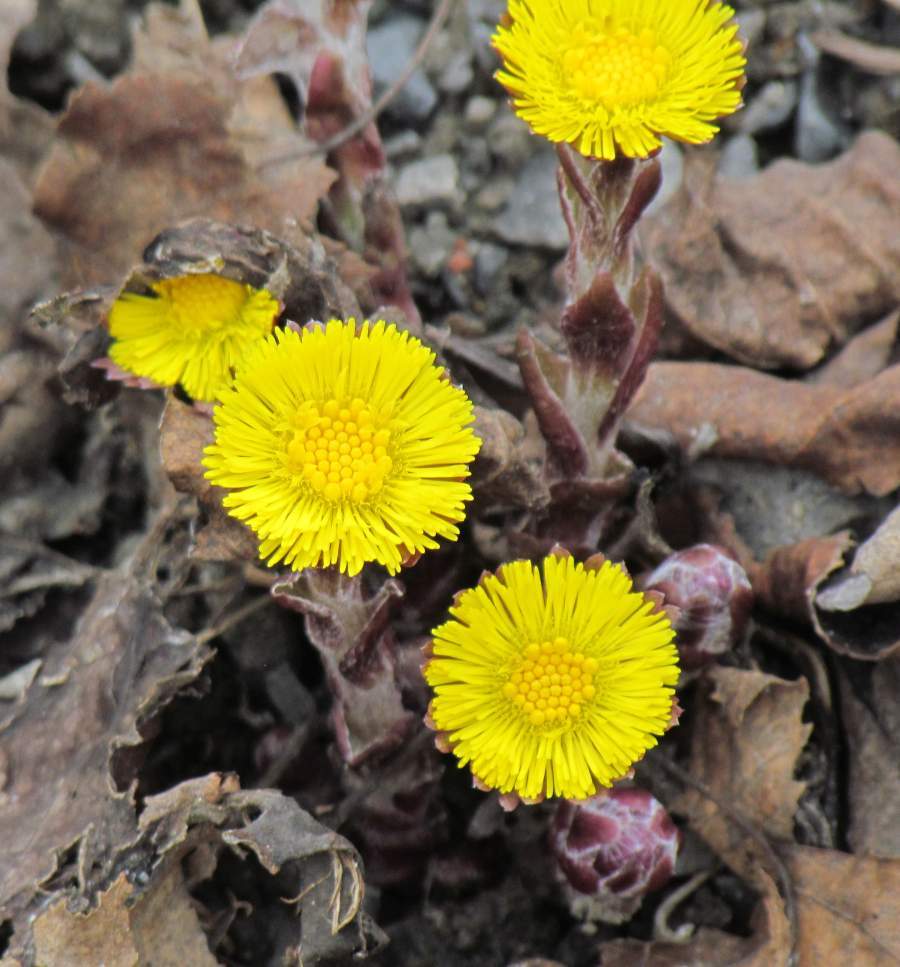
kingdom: Plantae
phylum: Tracheophyta
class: Magnoliopsida
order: Asterales
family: Asteraceae
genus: Tussilago
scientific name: Tussilago farfara
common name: Coltsfoot
